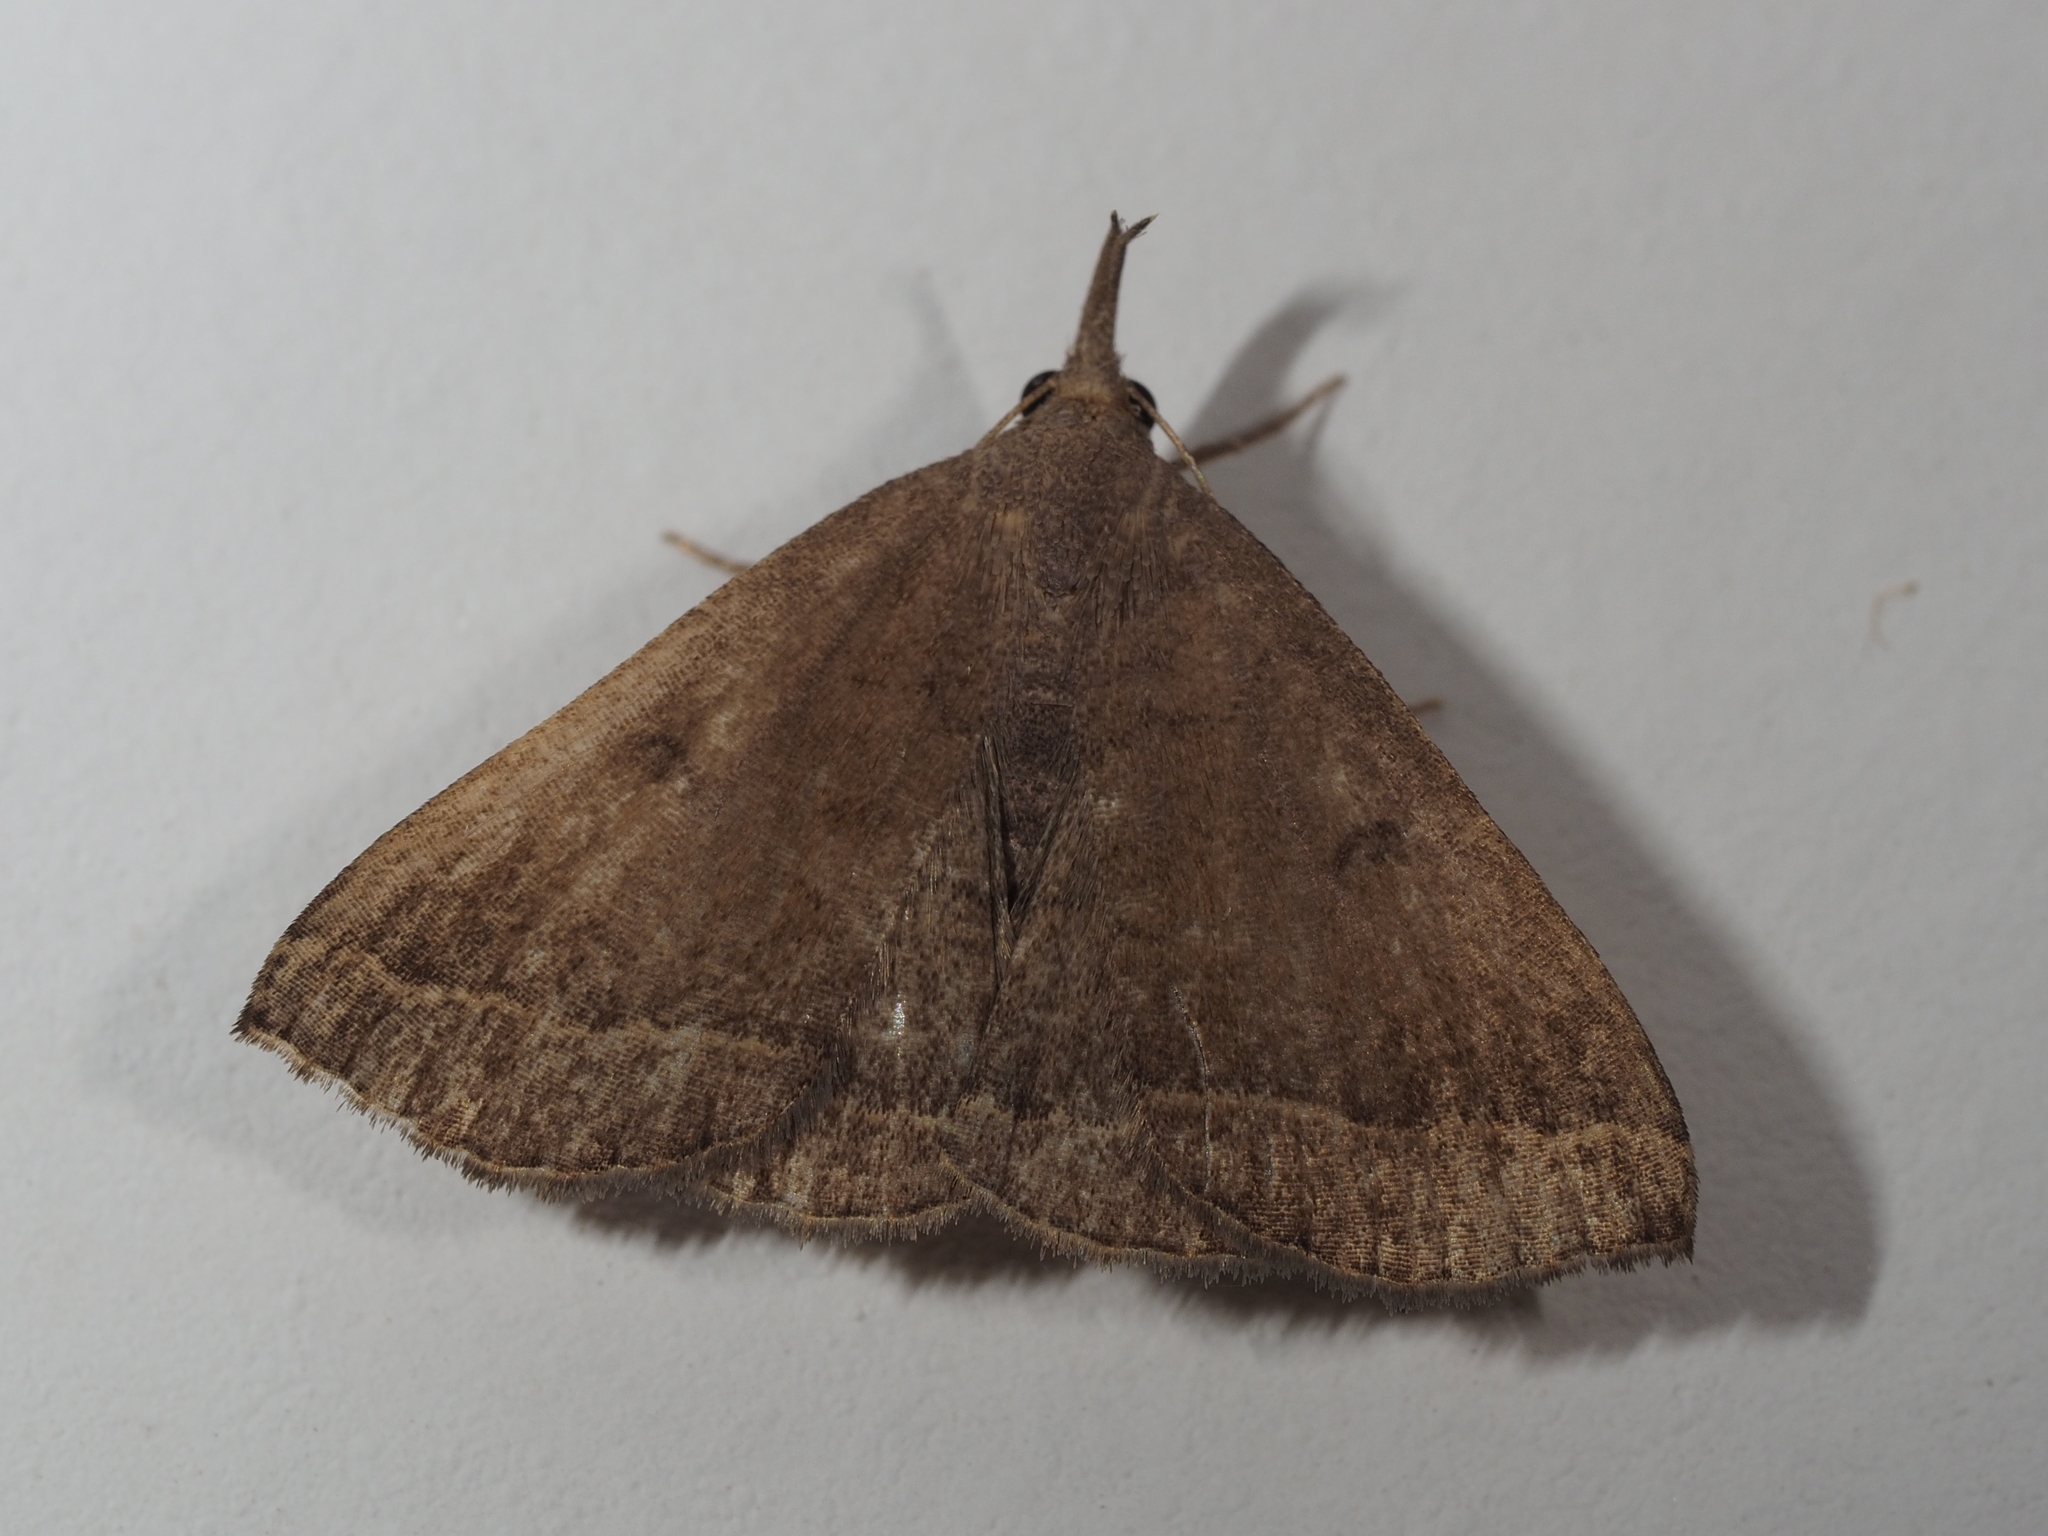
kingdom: Animalia
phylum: Arthropoda
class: Insecta
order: Lepidoptera
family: Erebidae
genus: Pechipogo
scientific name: Pechipogo plumigeralis
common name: Plumed fan-foot
